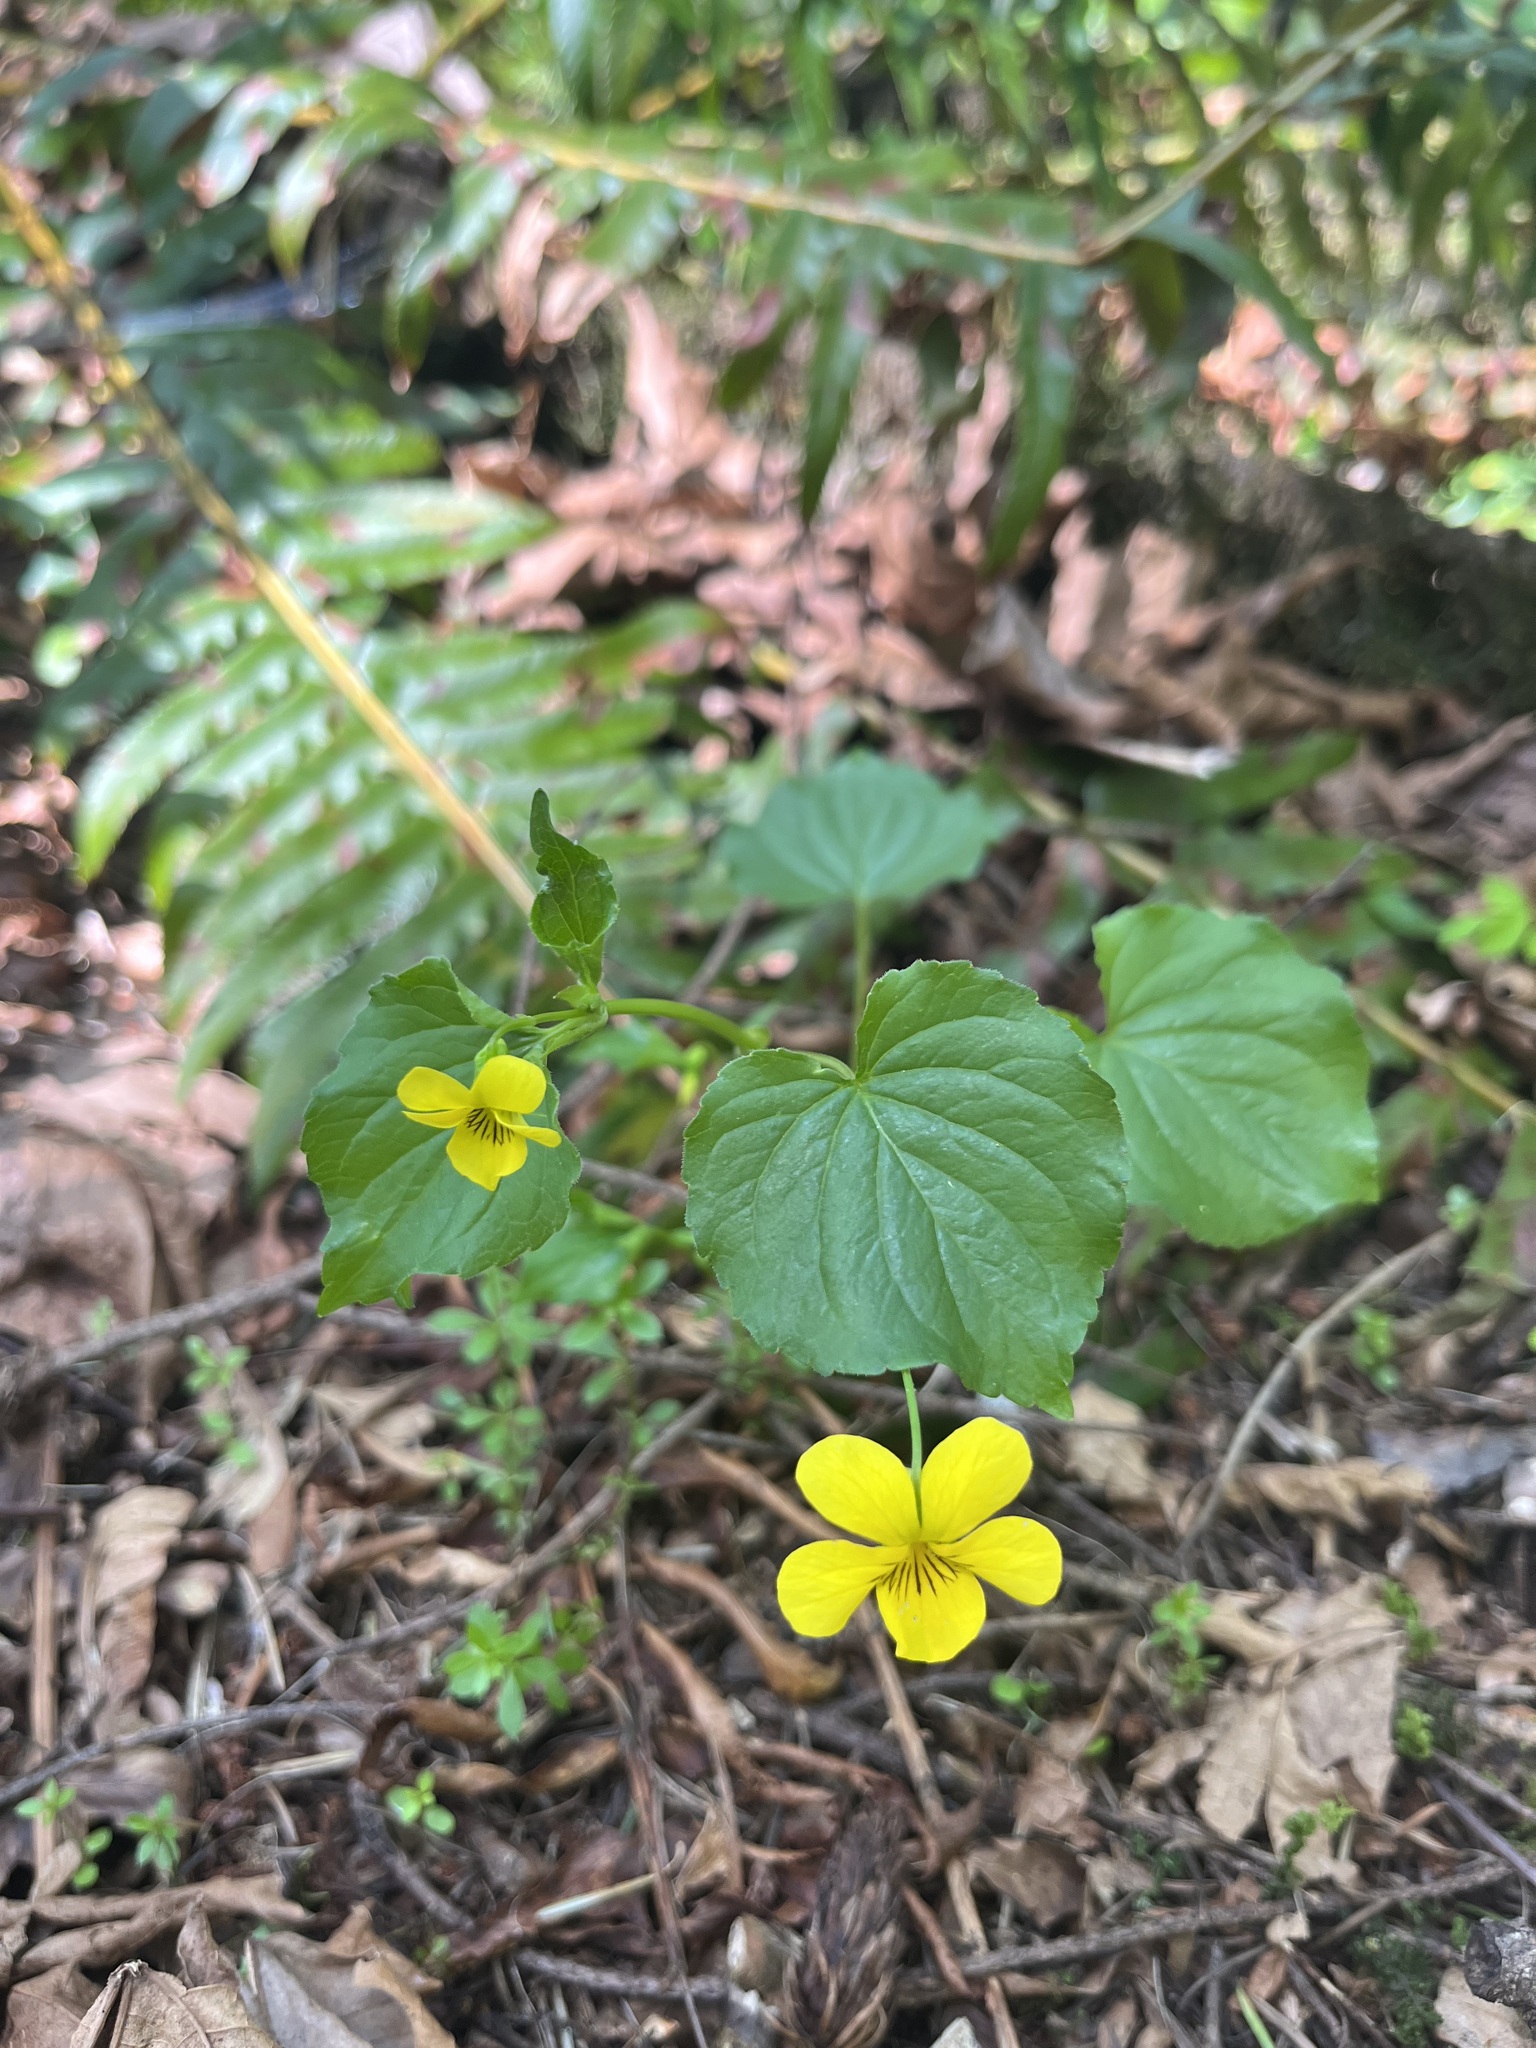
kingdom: Plantae
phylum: Tracheophyta
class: Magnoliopsida
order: Malpighiales
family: Violaceae
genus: Viola
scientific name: Viola glabella
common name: Stream violet
